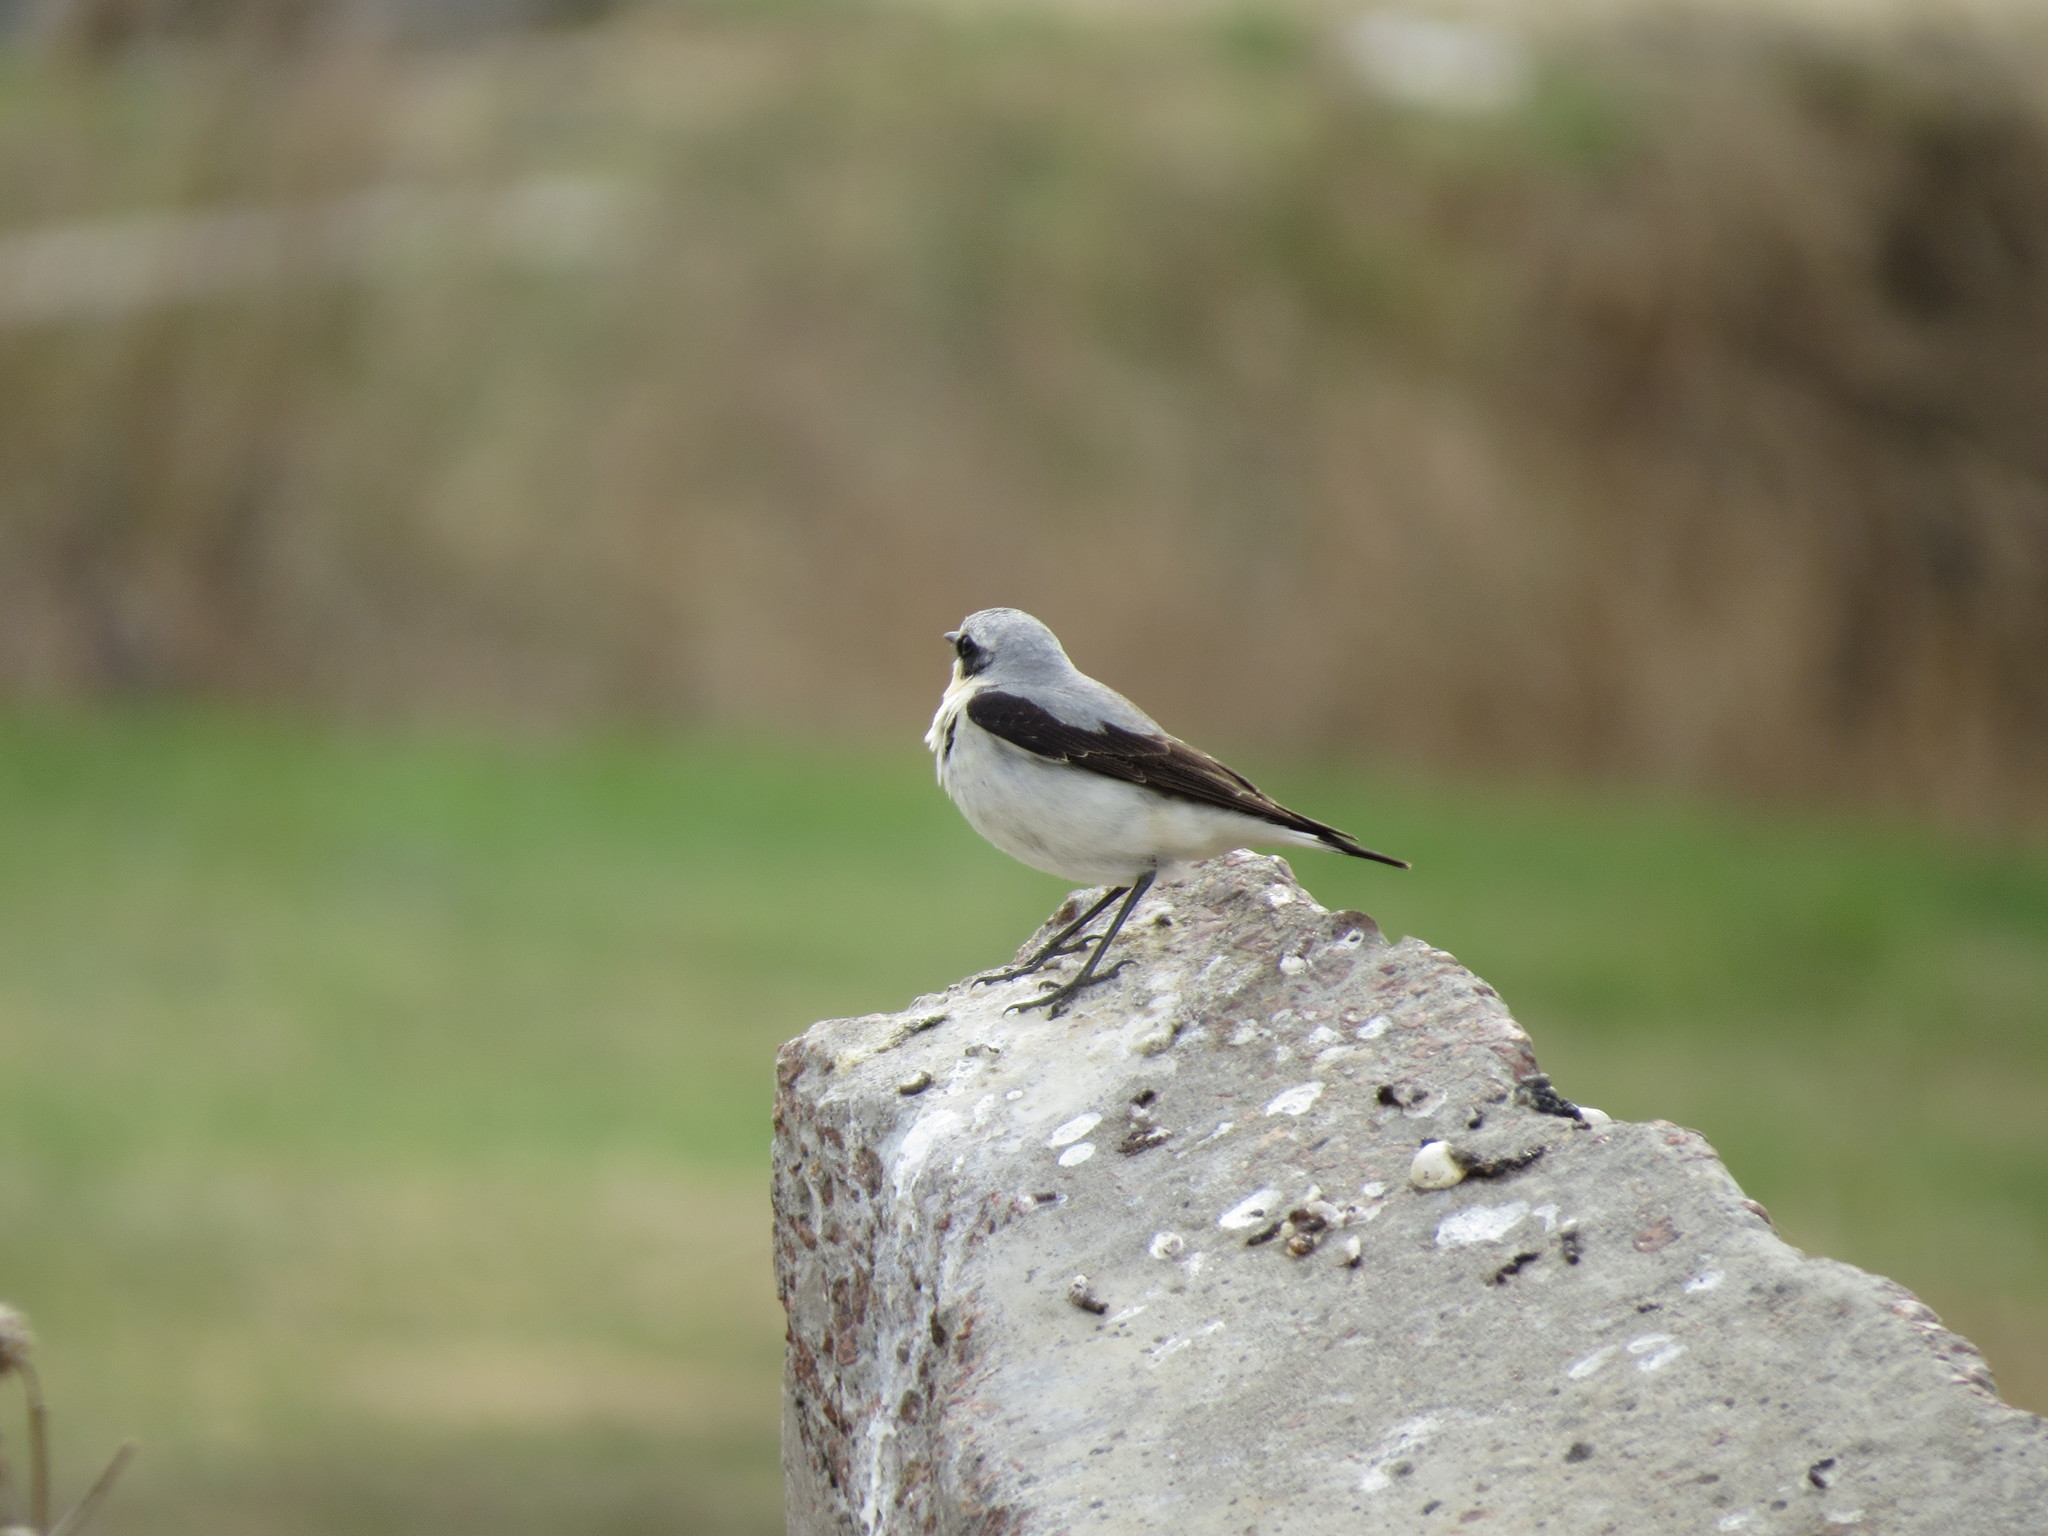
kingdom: Animalia
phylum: Chordata
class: Aves
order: Passeriformes
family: Muscicapidae
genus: Oenanthe
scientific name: Oenanthe oenanthe
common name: Northern wheatear
